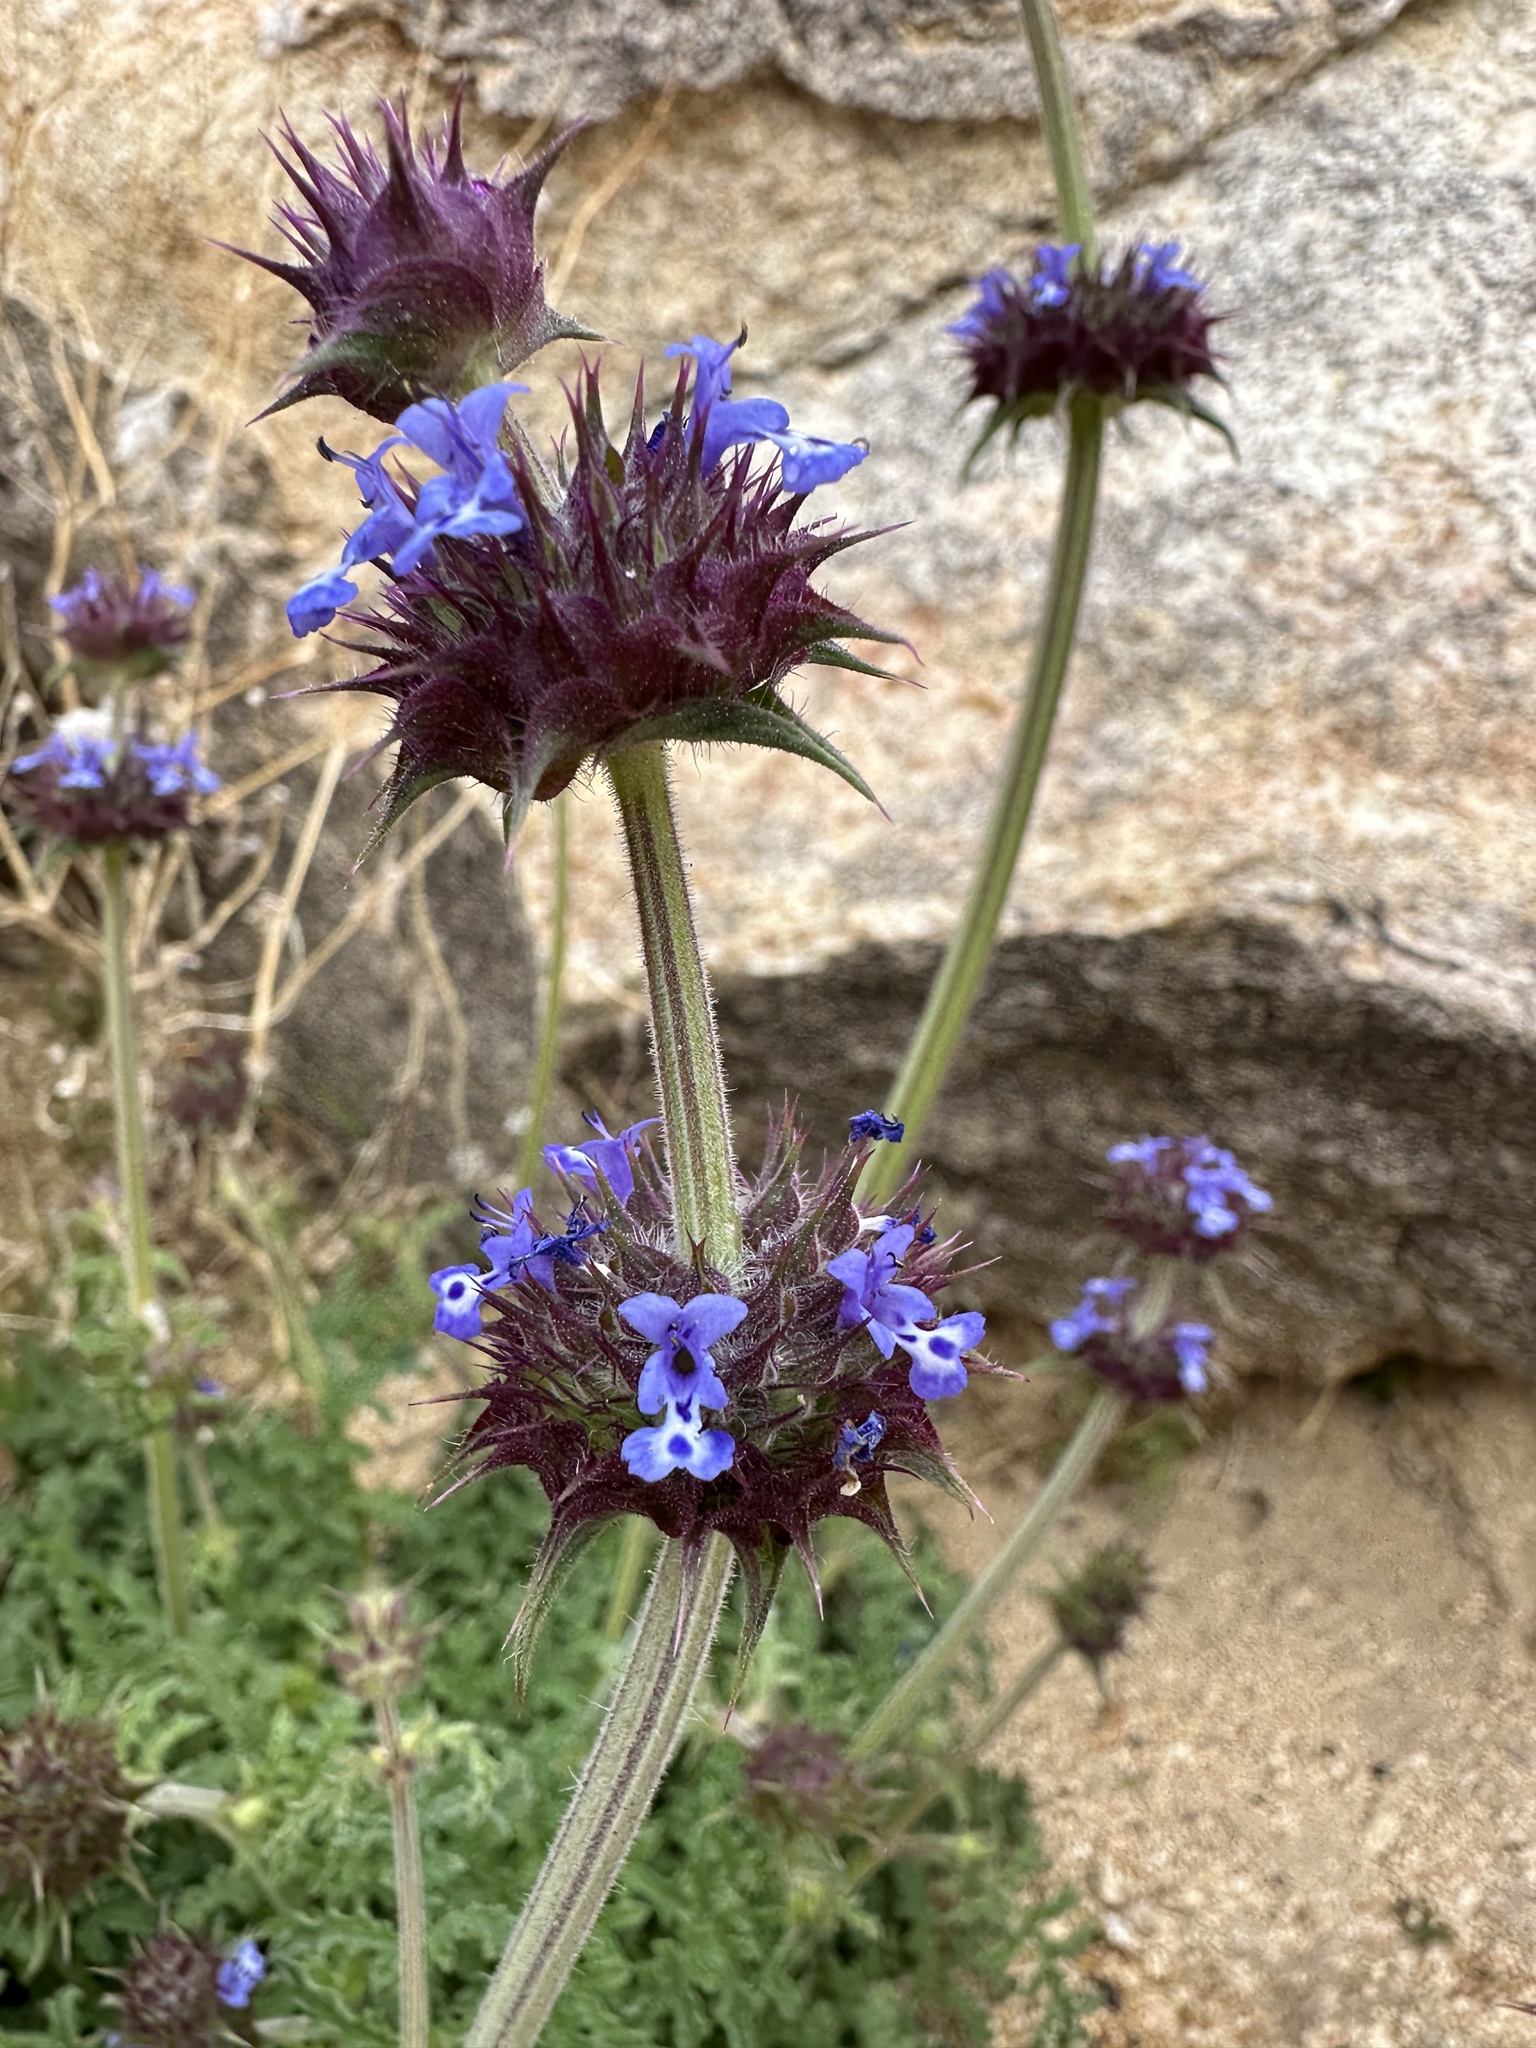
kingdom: Plantae
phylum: Tracheophyta
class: Magnoliopsida
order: Lamiales
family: Lamiaceae
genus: Salvia
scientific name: Salvia columbariae
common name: Chia
